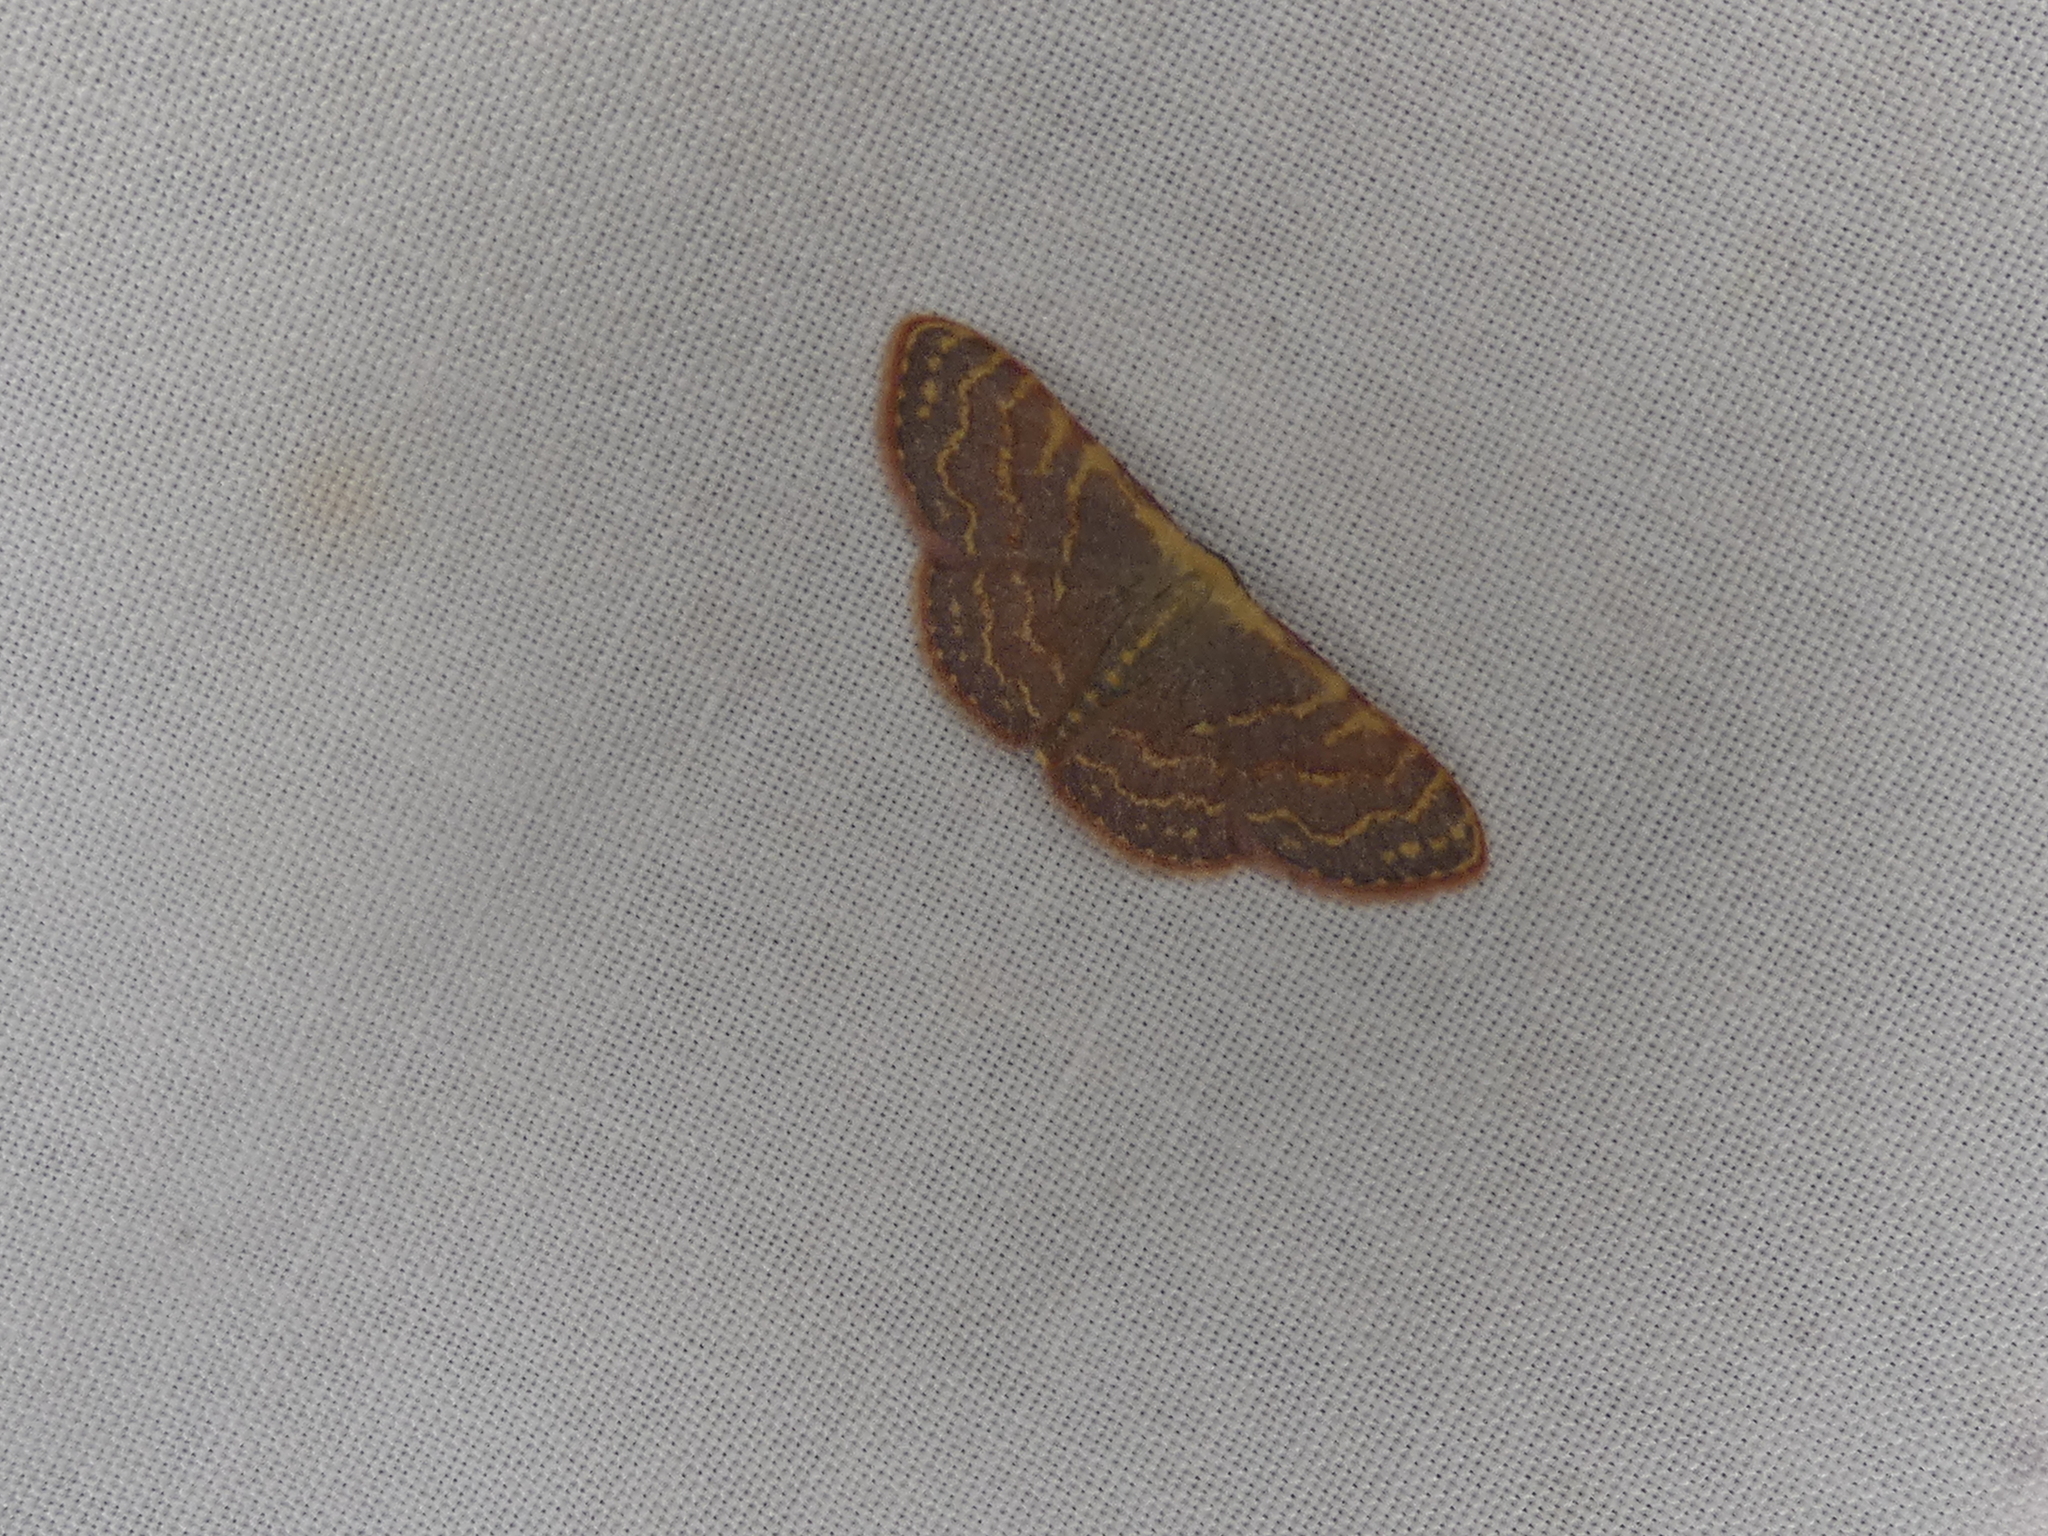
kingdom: Animalia
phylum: Arthropoda
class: Insecta
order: Lepidoptera
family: Geometridae
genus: Leptostales
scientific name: Leptostales pannaria
